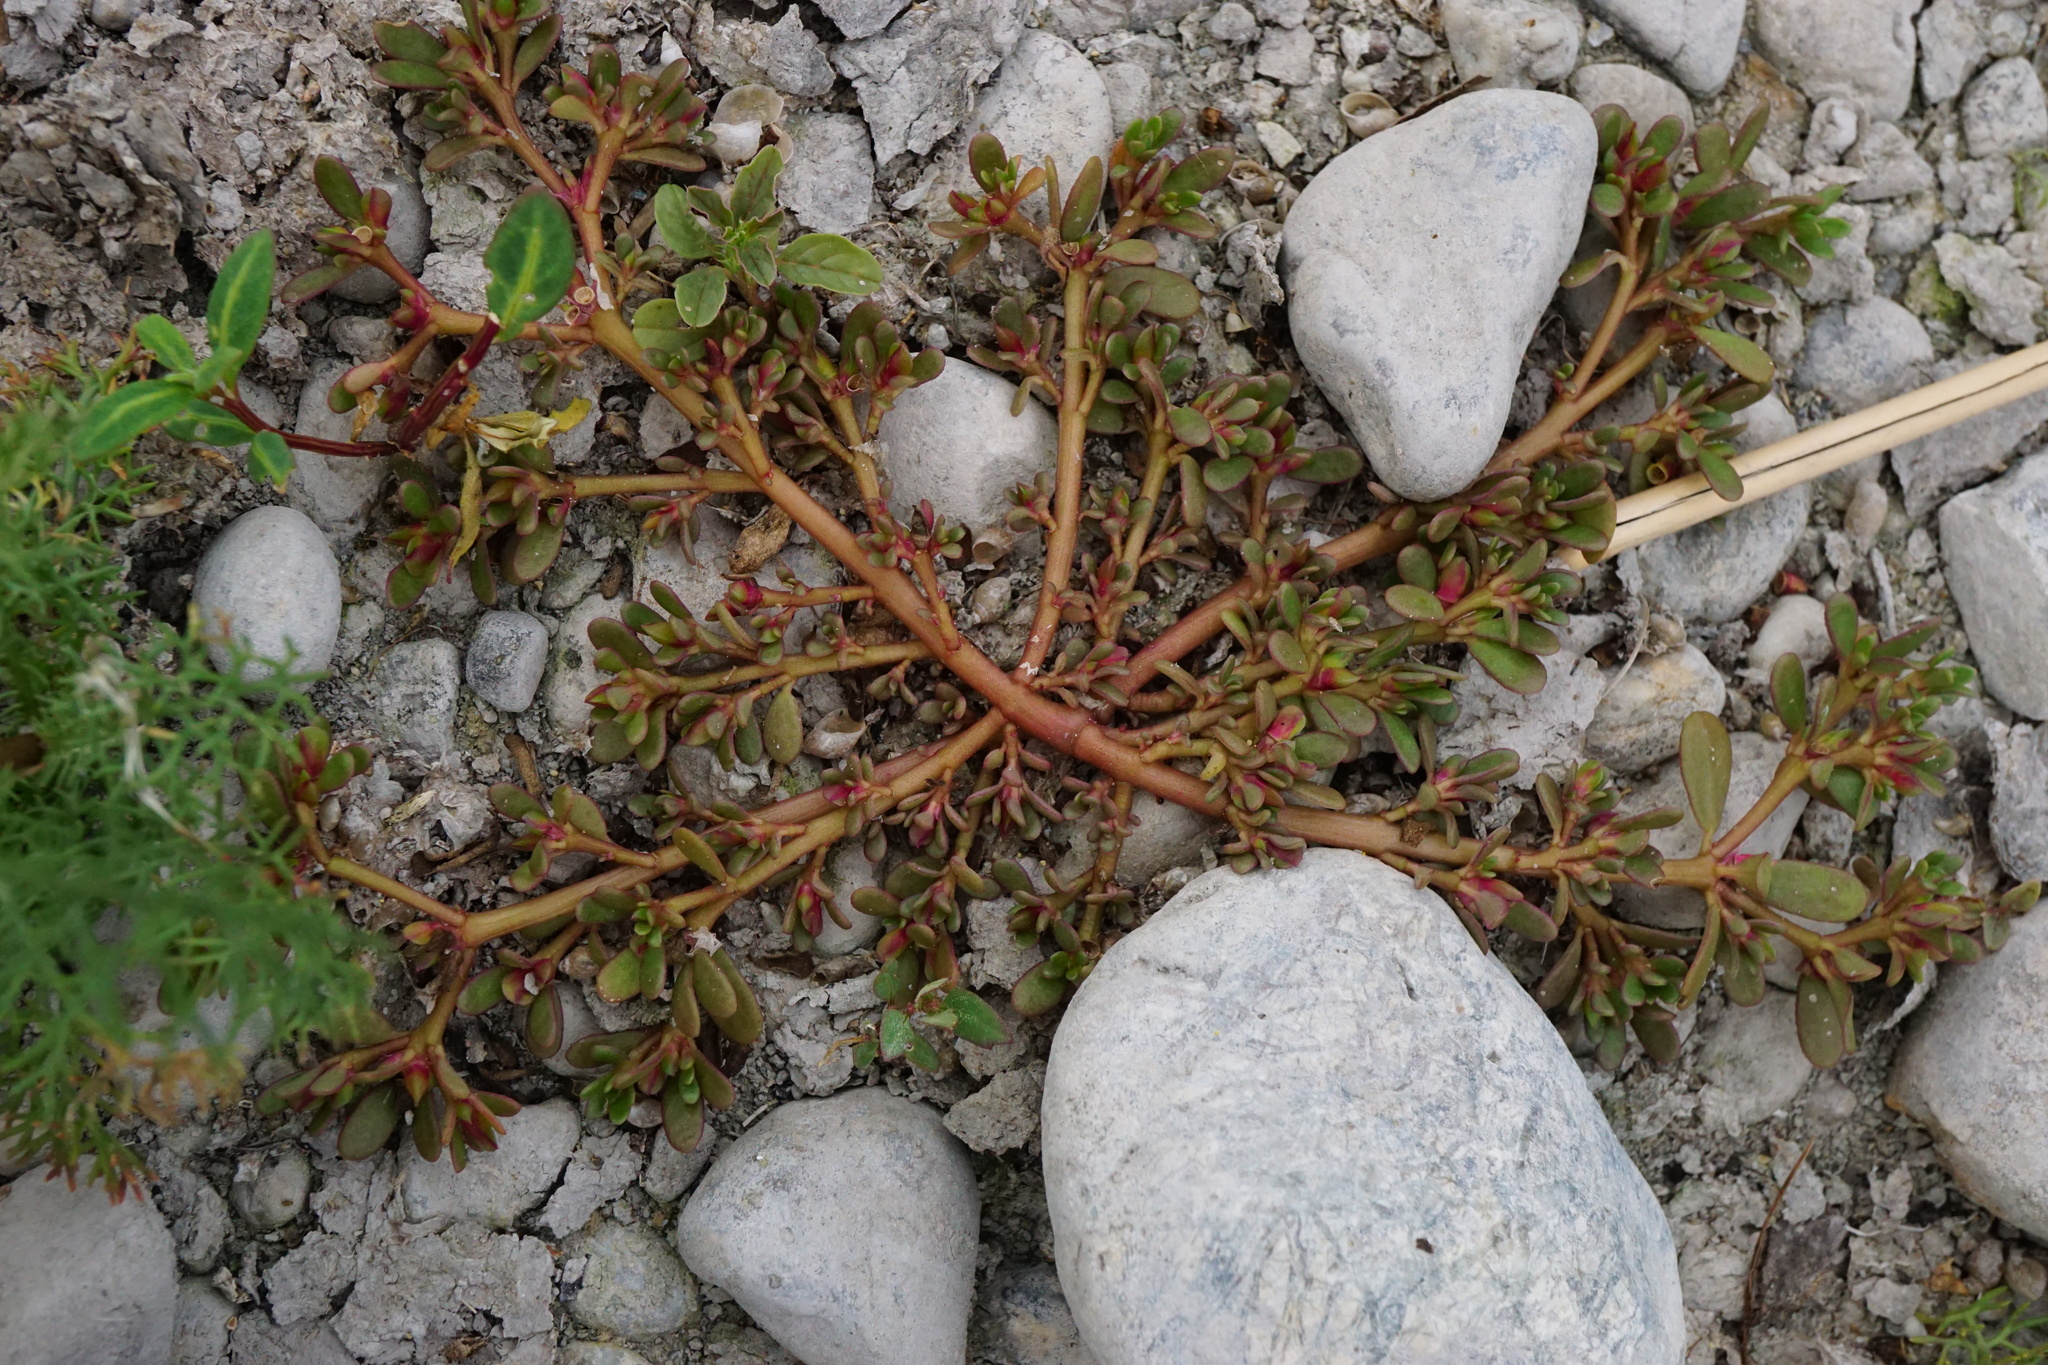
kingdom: Plantae
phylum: Tracheophyta
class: Magnoliopsida
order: Caryophyllales
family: Portulacaceae
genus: Portulaca
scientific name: Portulaca oleracea
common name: Common purslane
